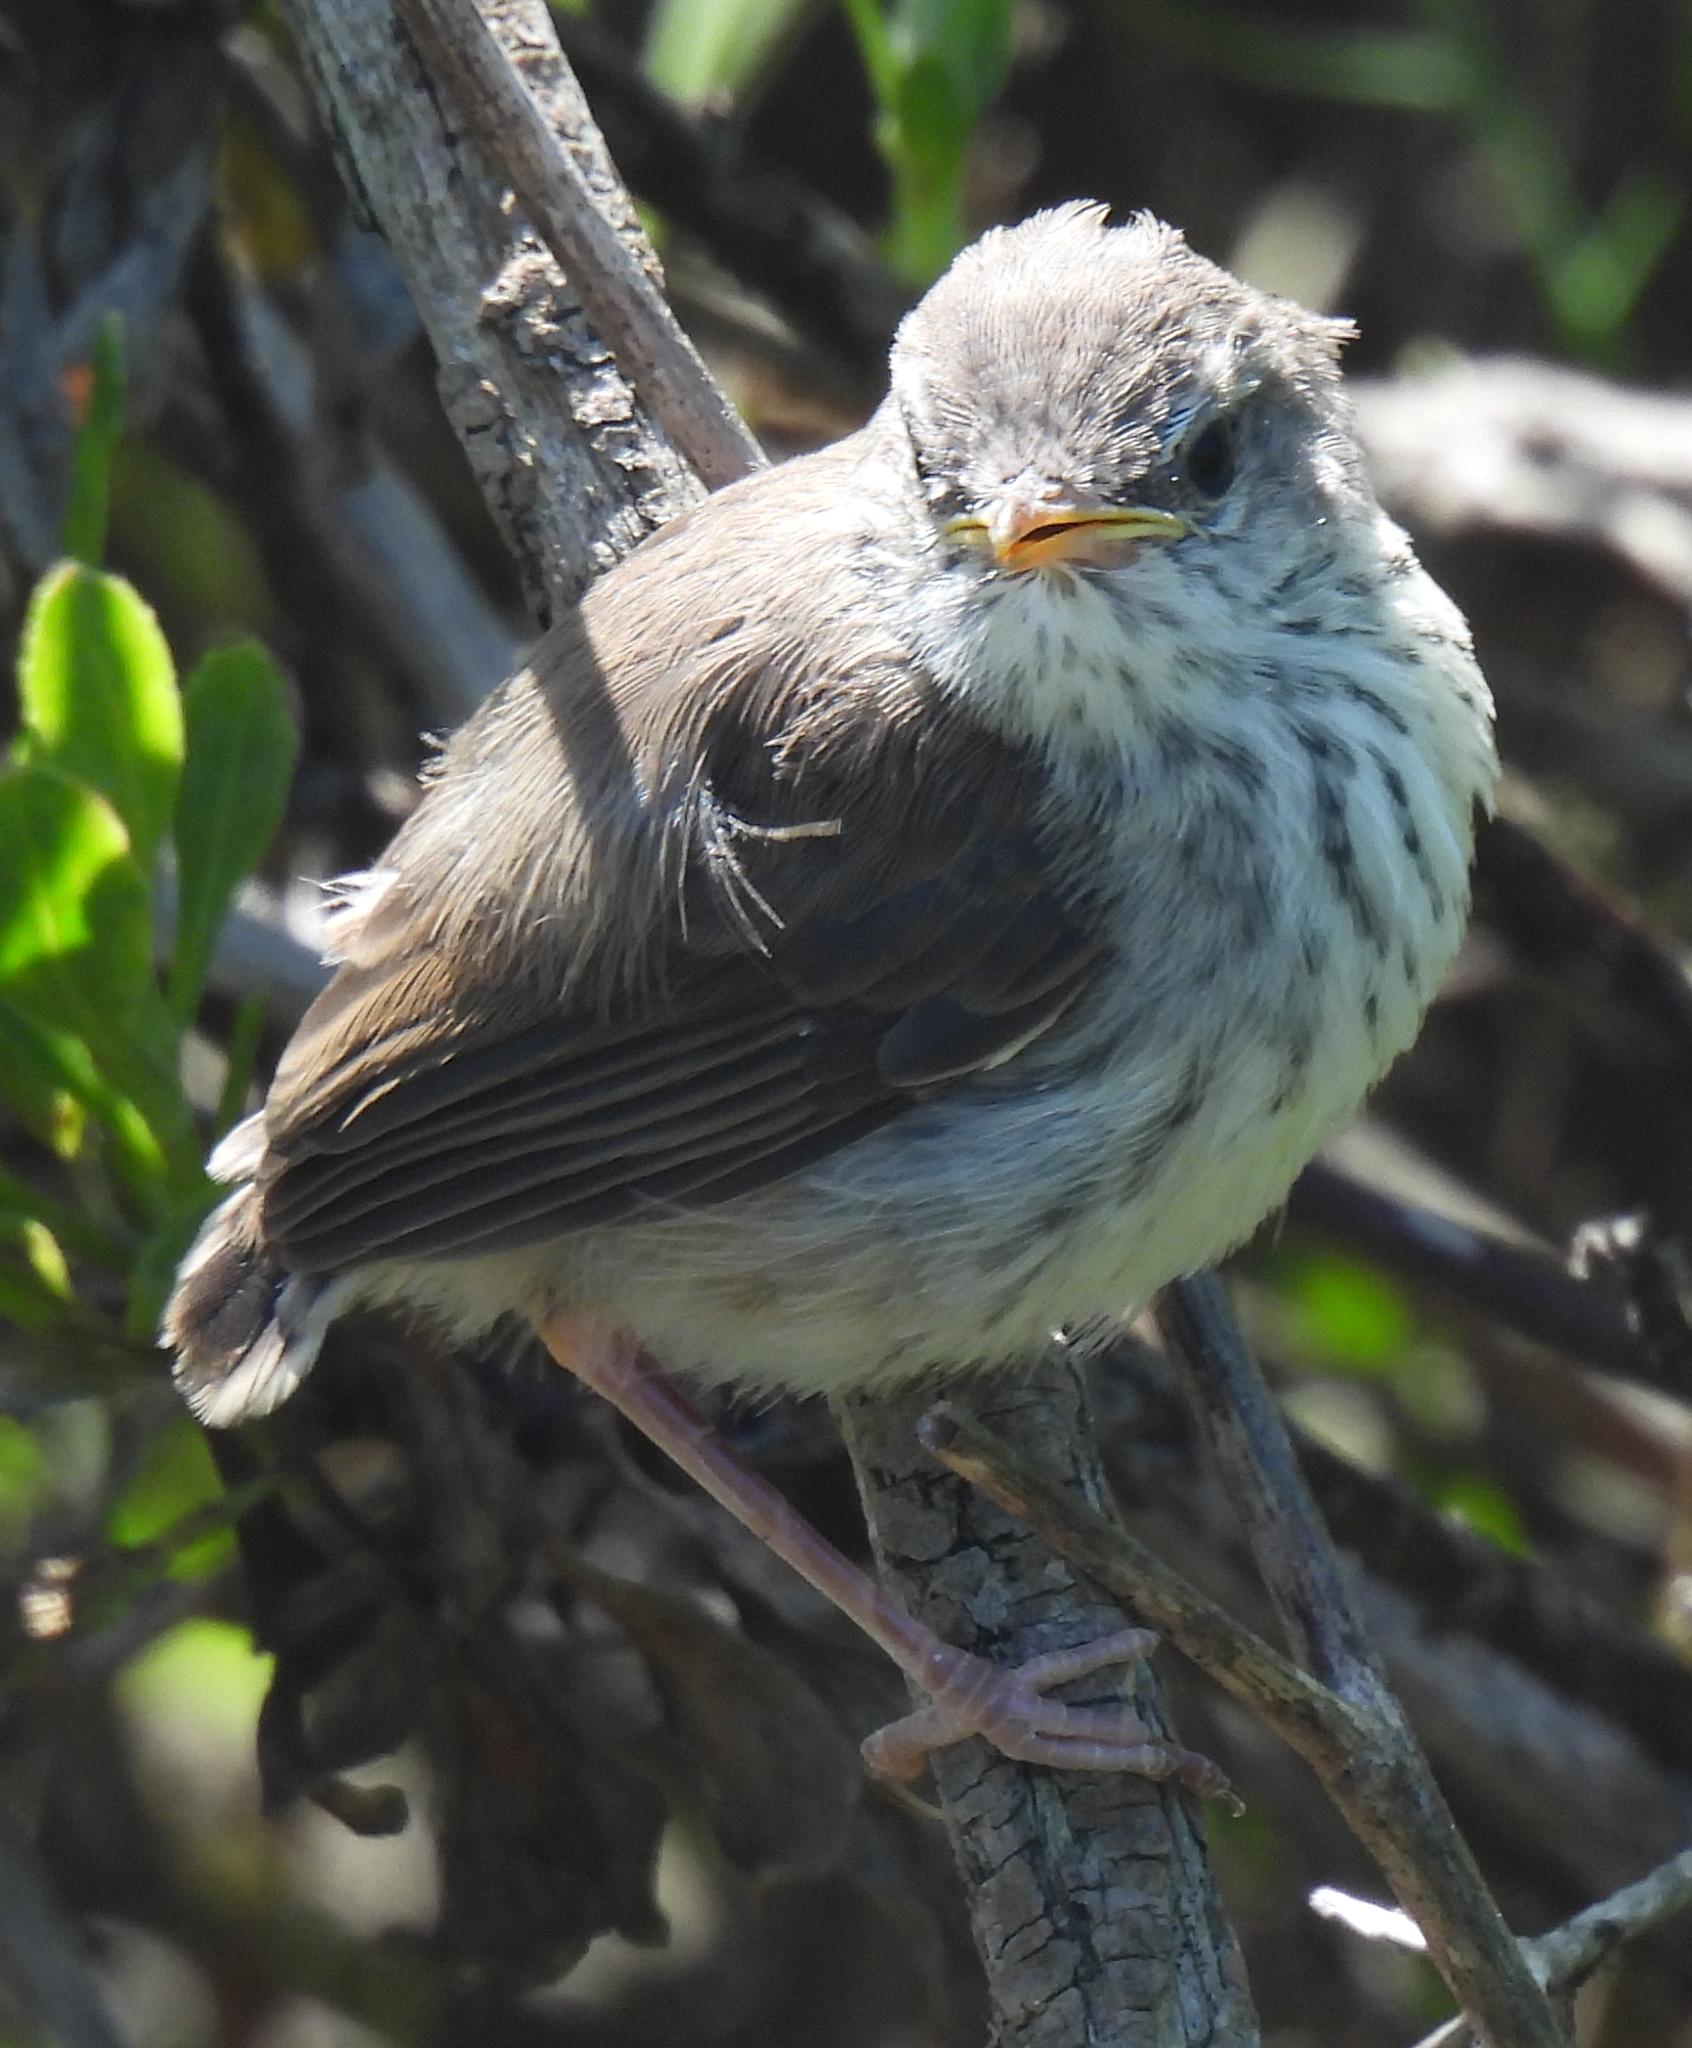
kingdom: Animalia
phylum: Chordata
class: Aves
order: Passeriformes
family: Cisticolidae
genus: Prinia
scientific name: Prinia maculosa
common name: Karoo prinia
